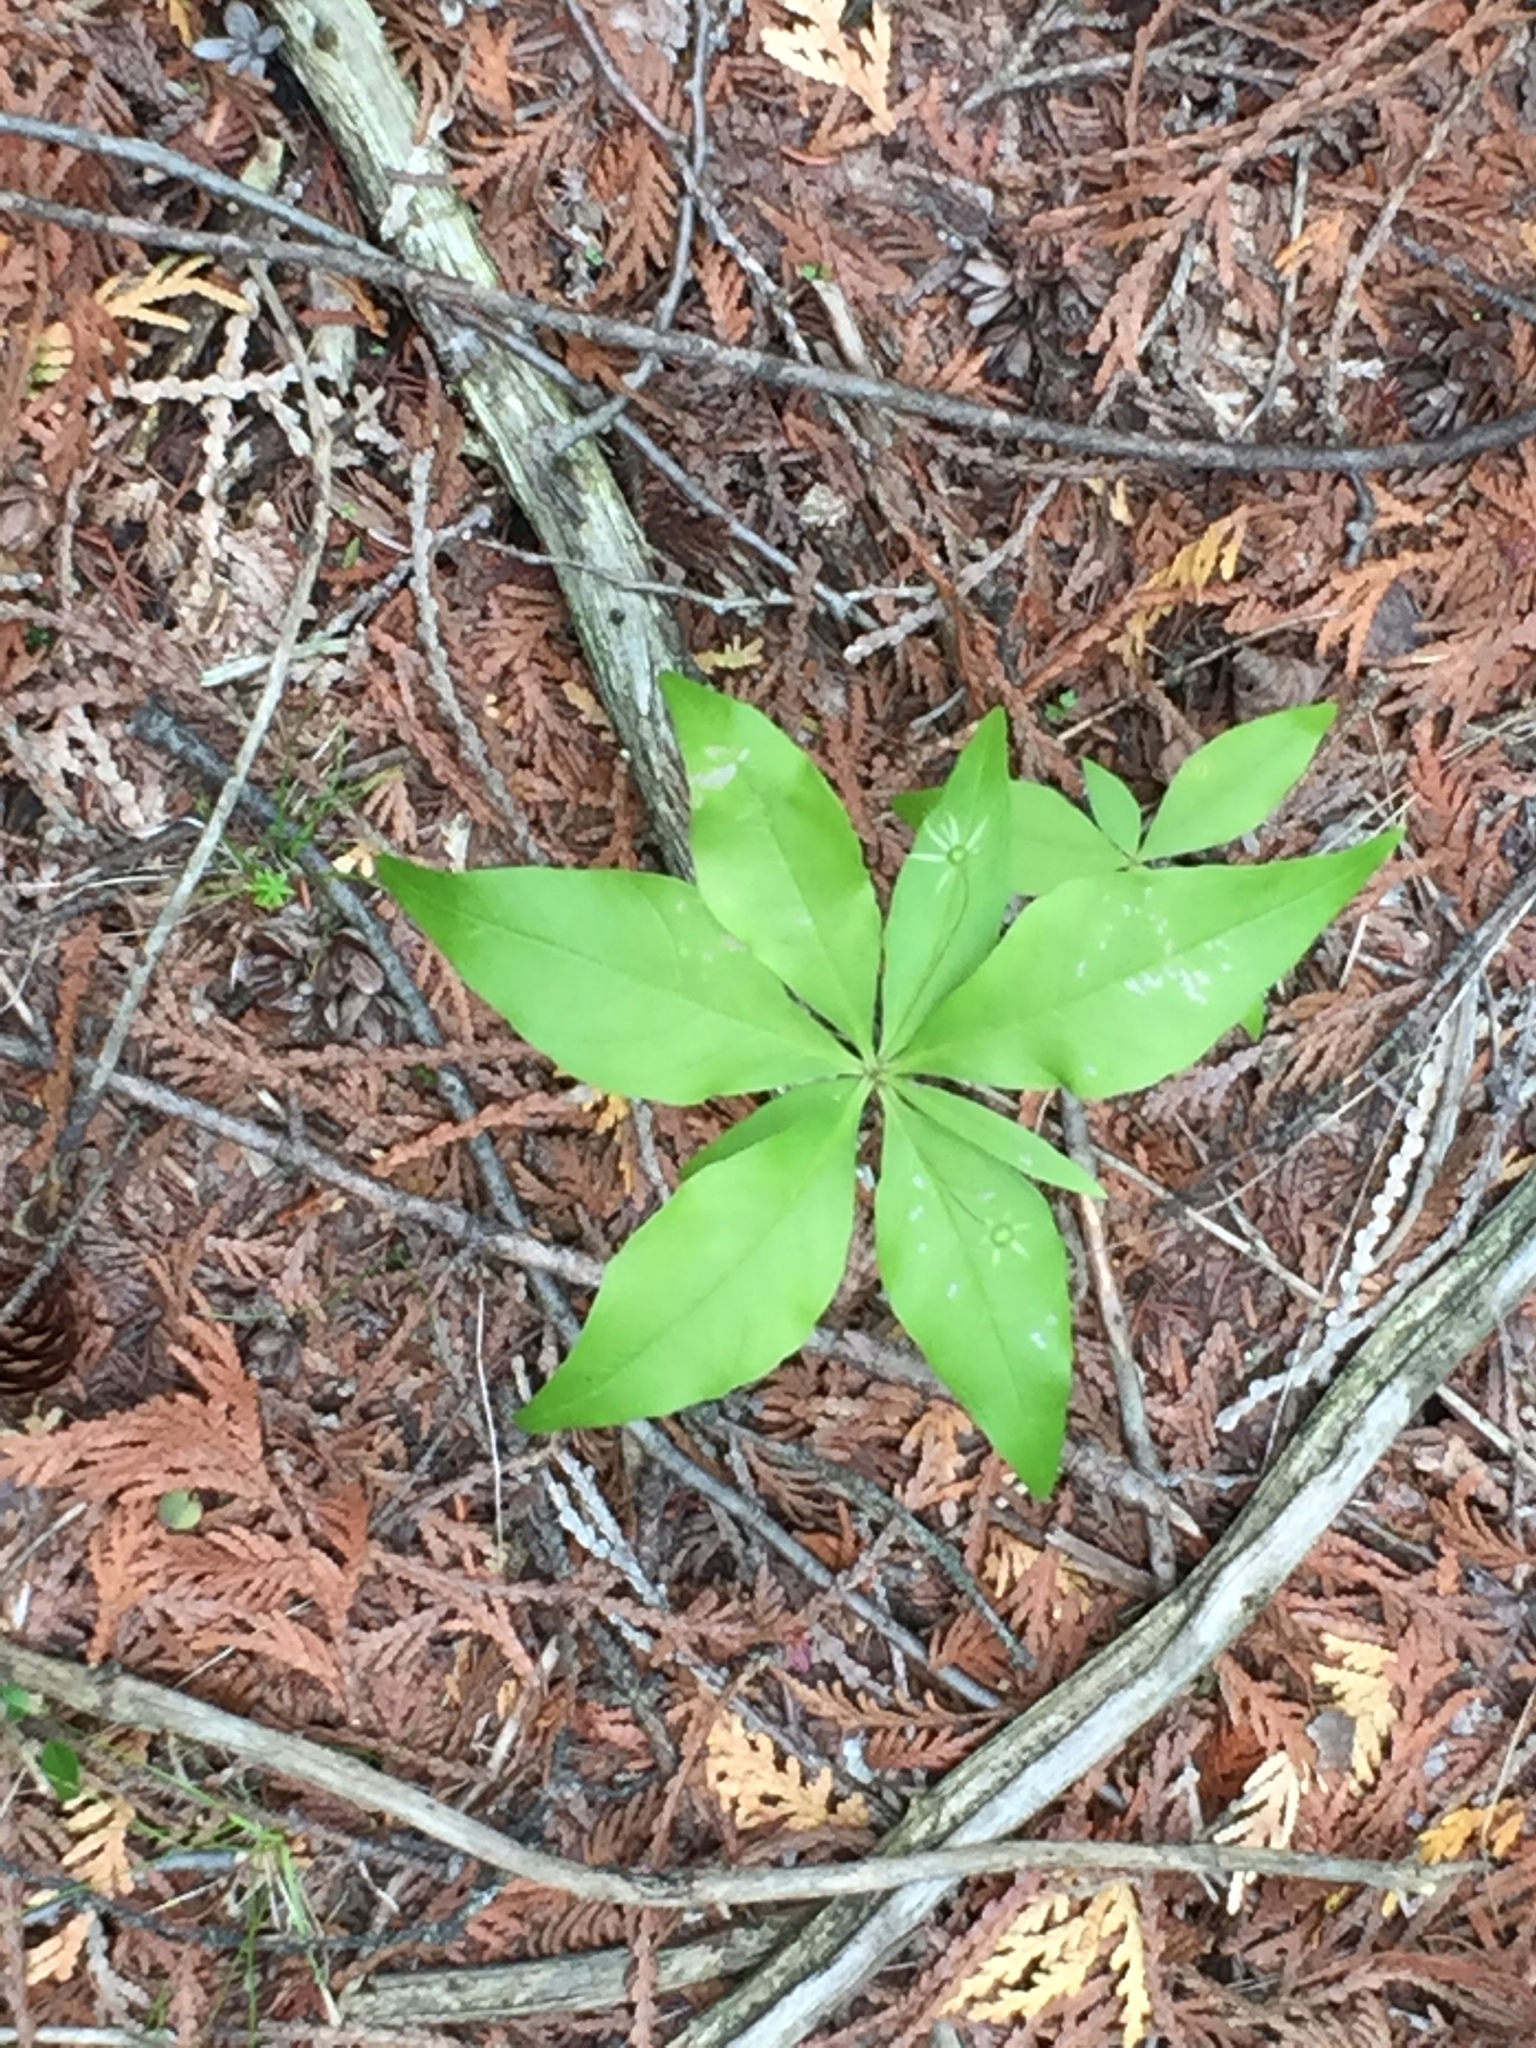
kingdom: Plantae
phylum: Tracheophyta
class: Magnoliopsida
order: Ericales
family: Primulaceae
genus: Lysimachia
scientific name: Lysimachia borealis
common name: American starflower
